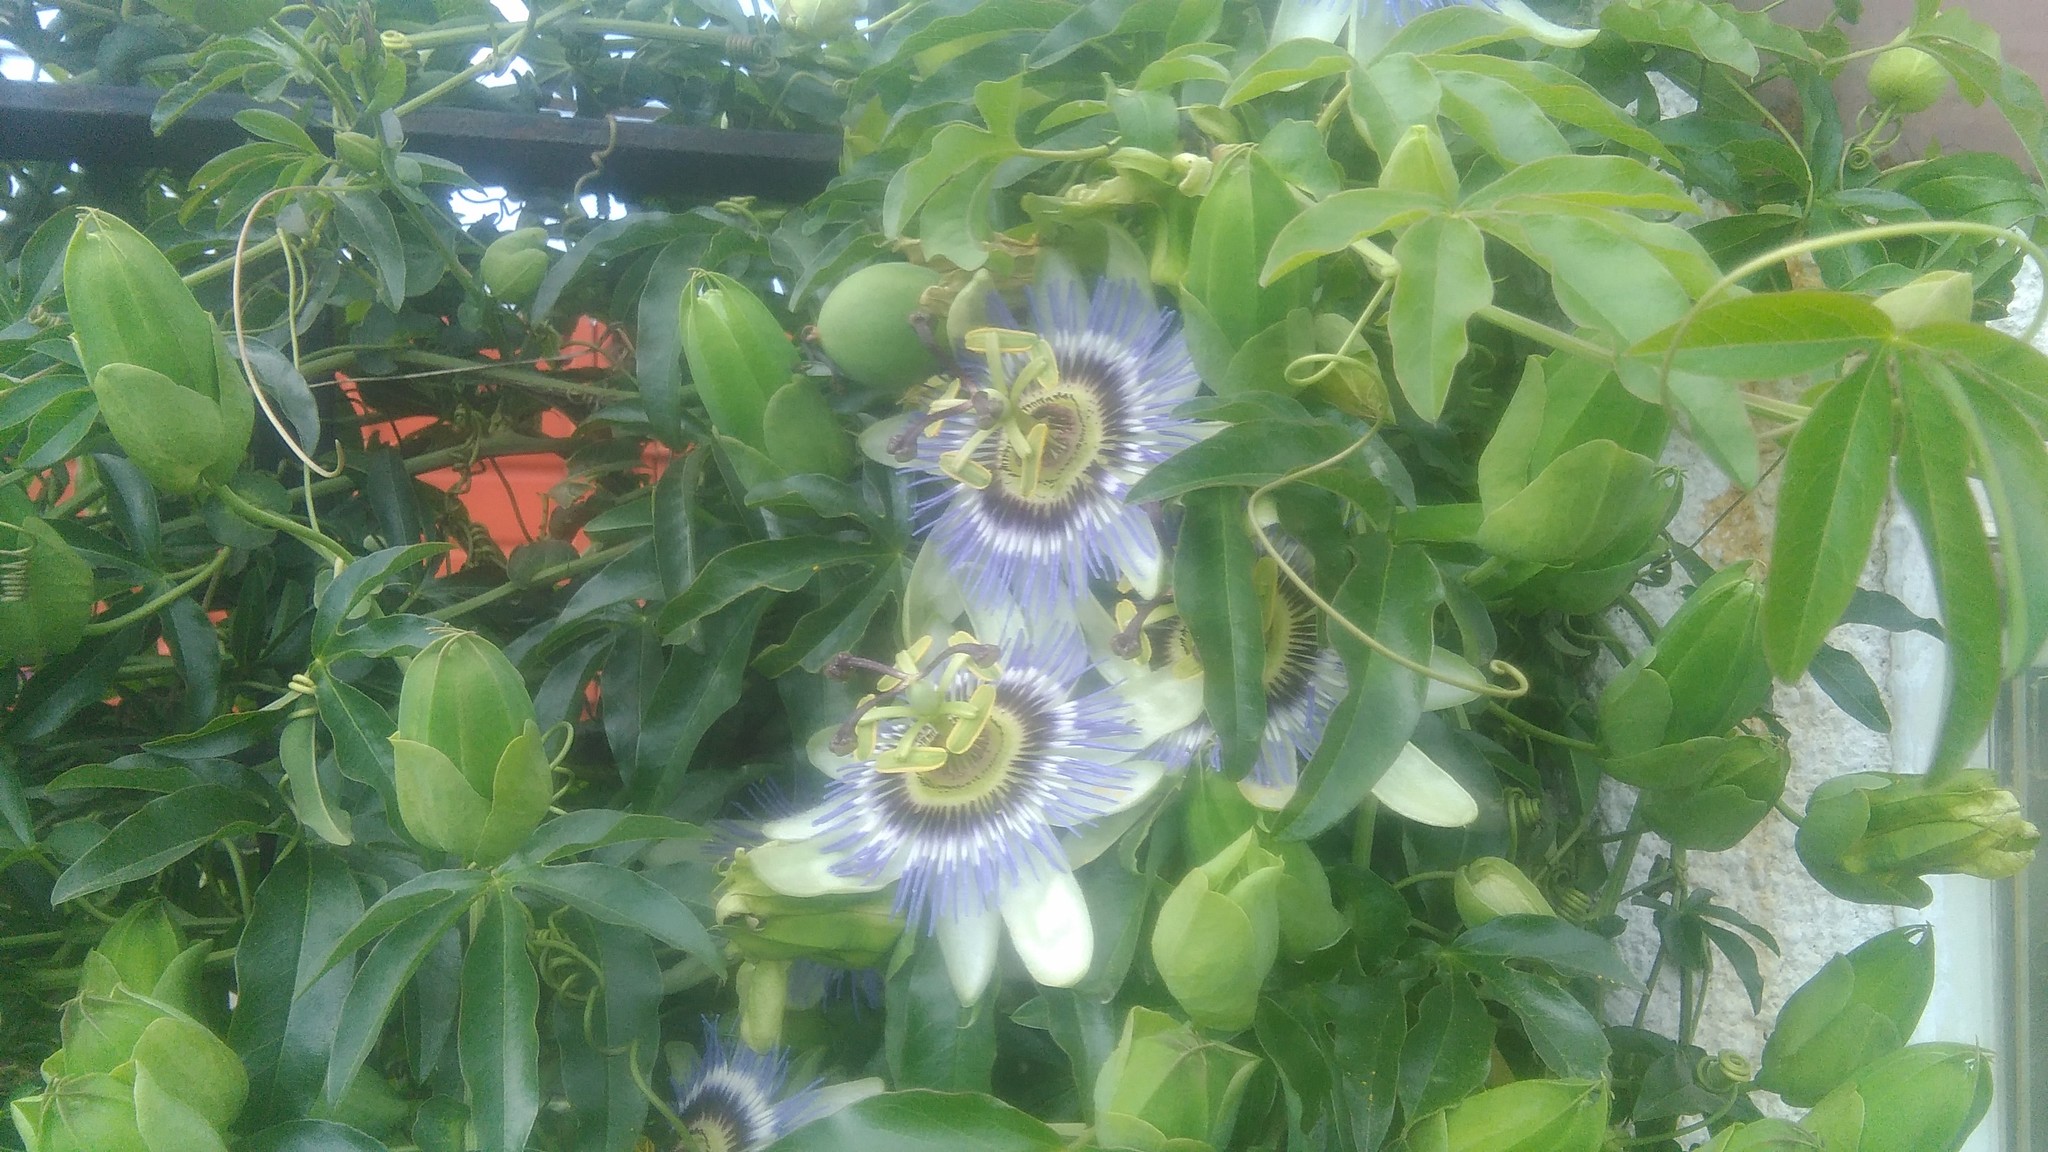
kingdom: Plantae
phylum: Tracheophyta
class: Magnoliopsida
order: Malpighiales
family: Passifloraceae
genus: Passiflora
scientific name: Passiflora caerulea
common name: Blue passionflower
